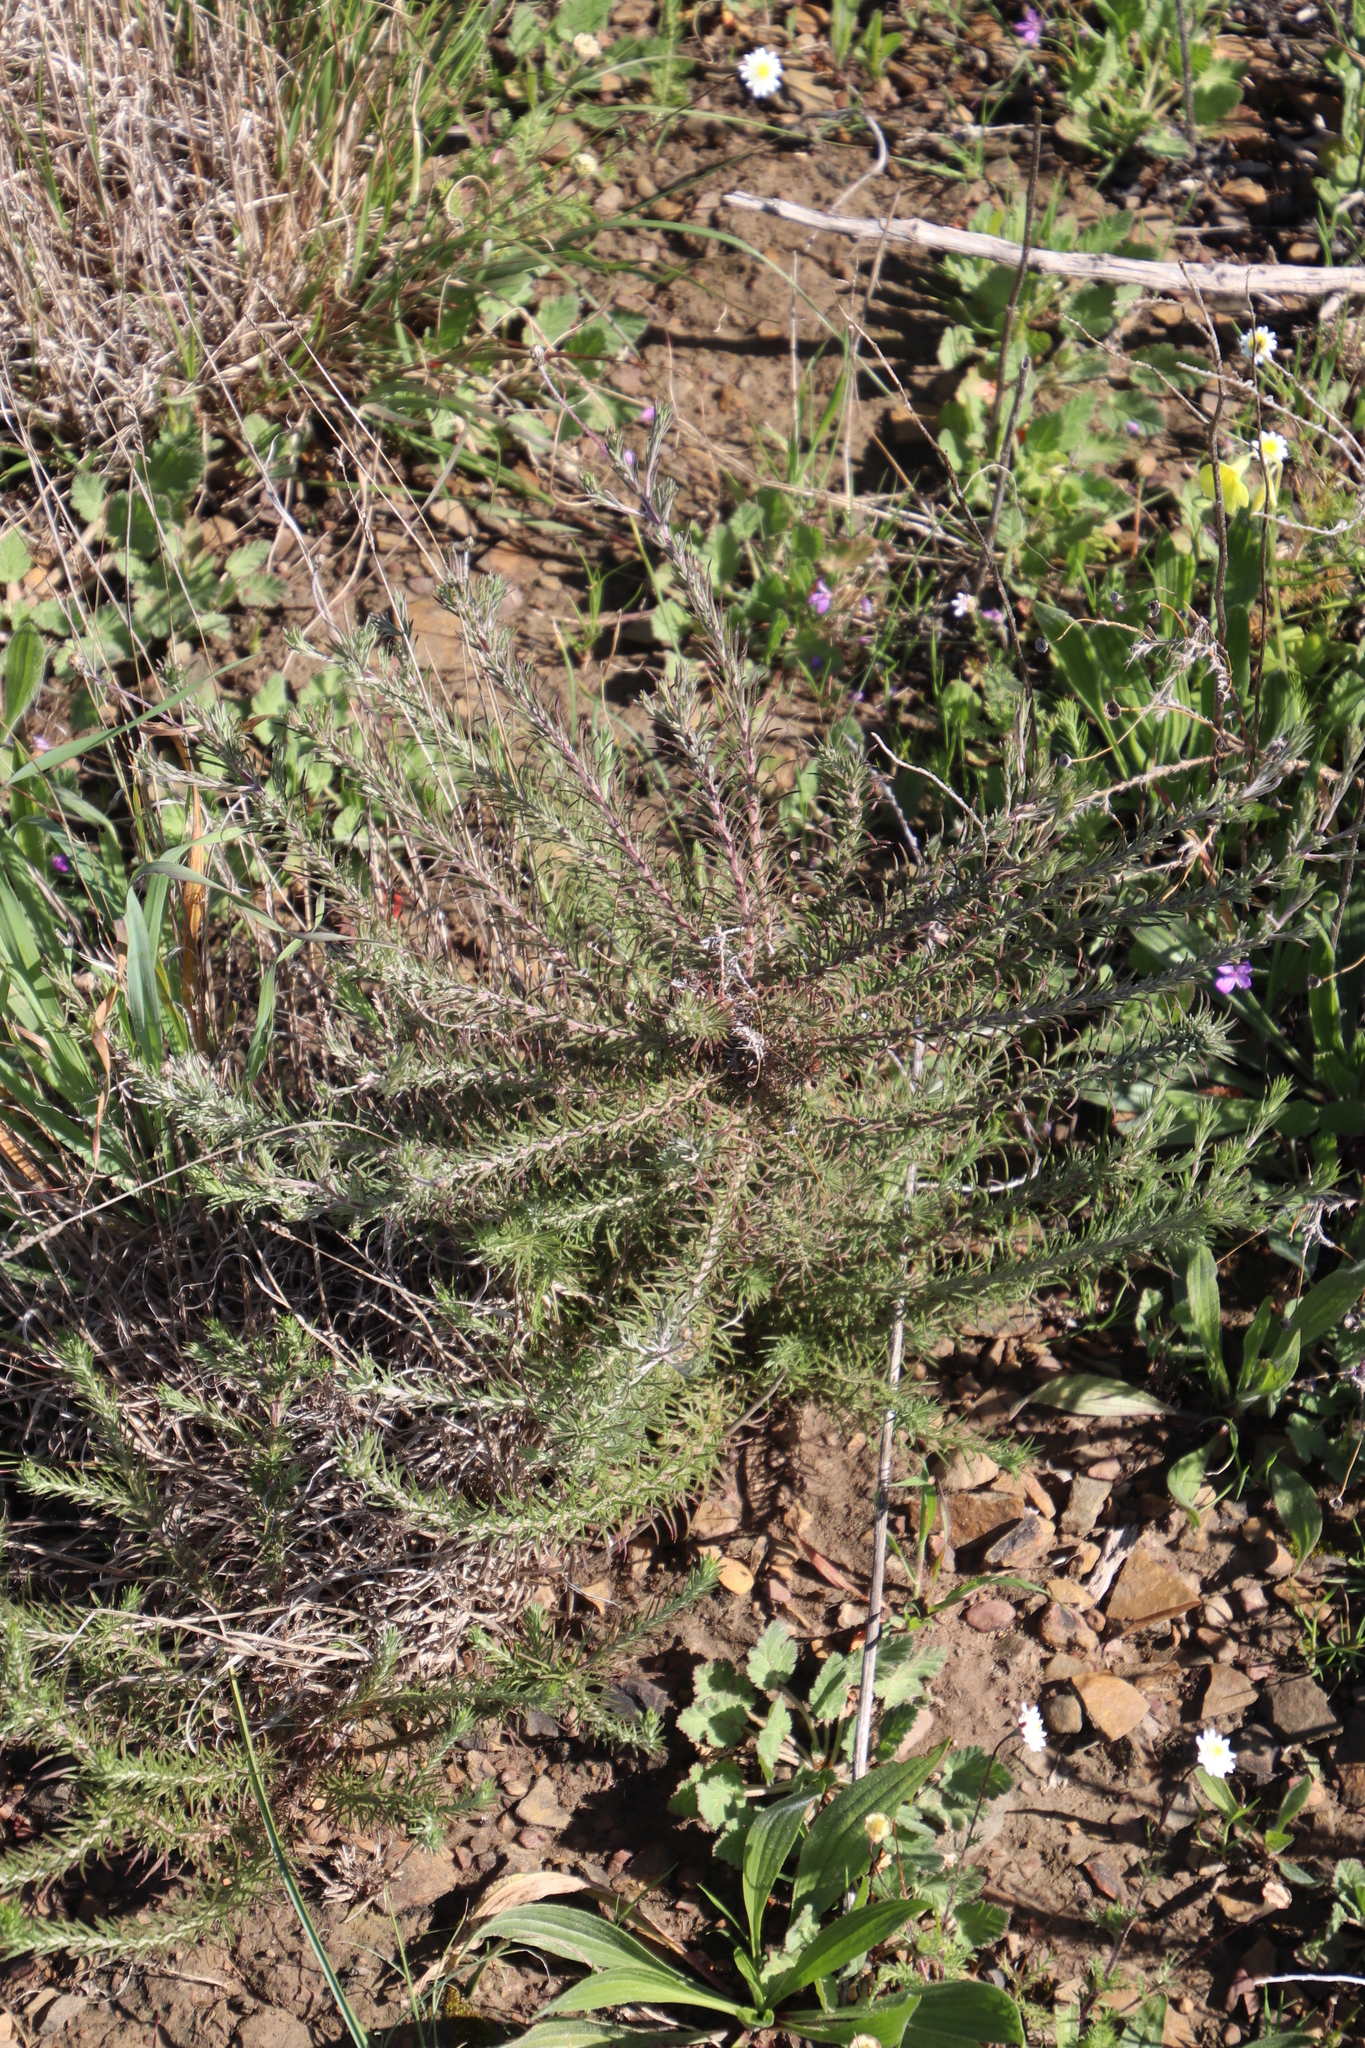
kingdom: Plantae
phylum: Tracheophyta
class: Magnoliopsida
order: Asterales
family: Asteraceae
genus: Leysera
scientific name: Leysera gnaphalodes
